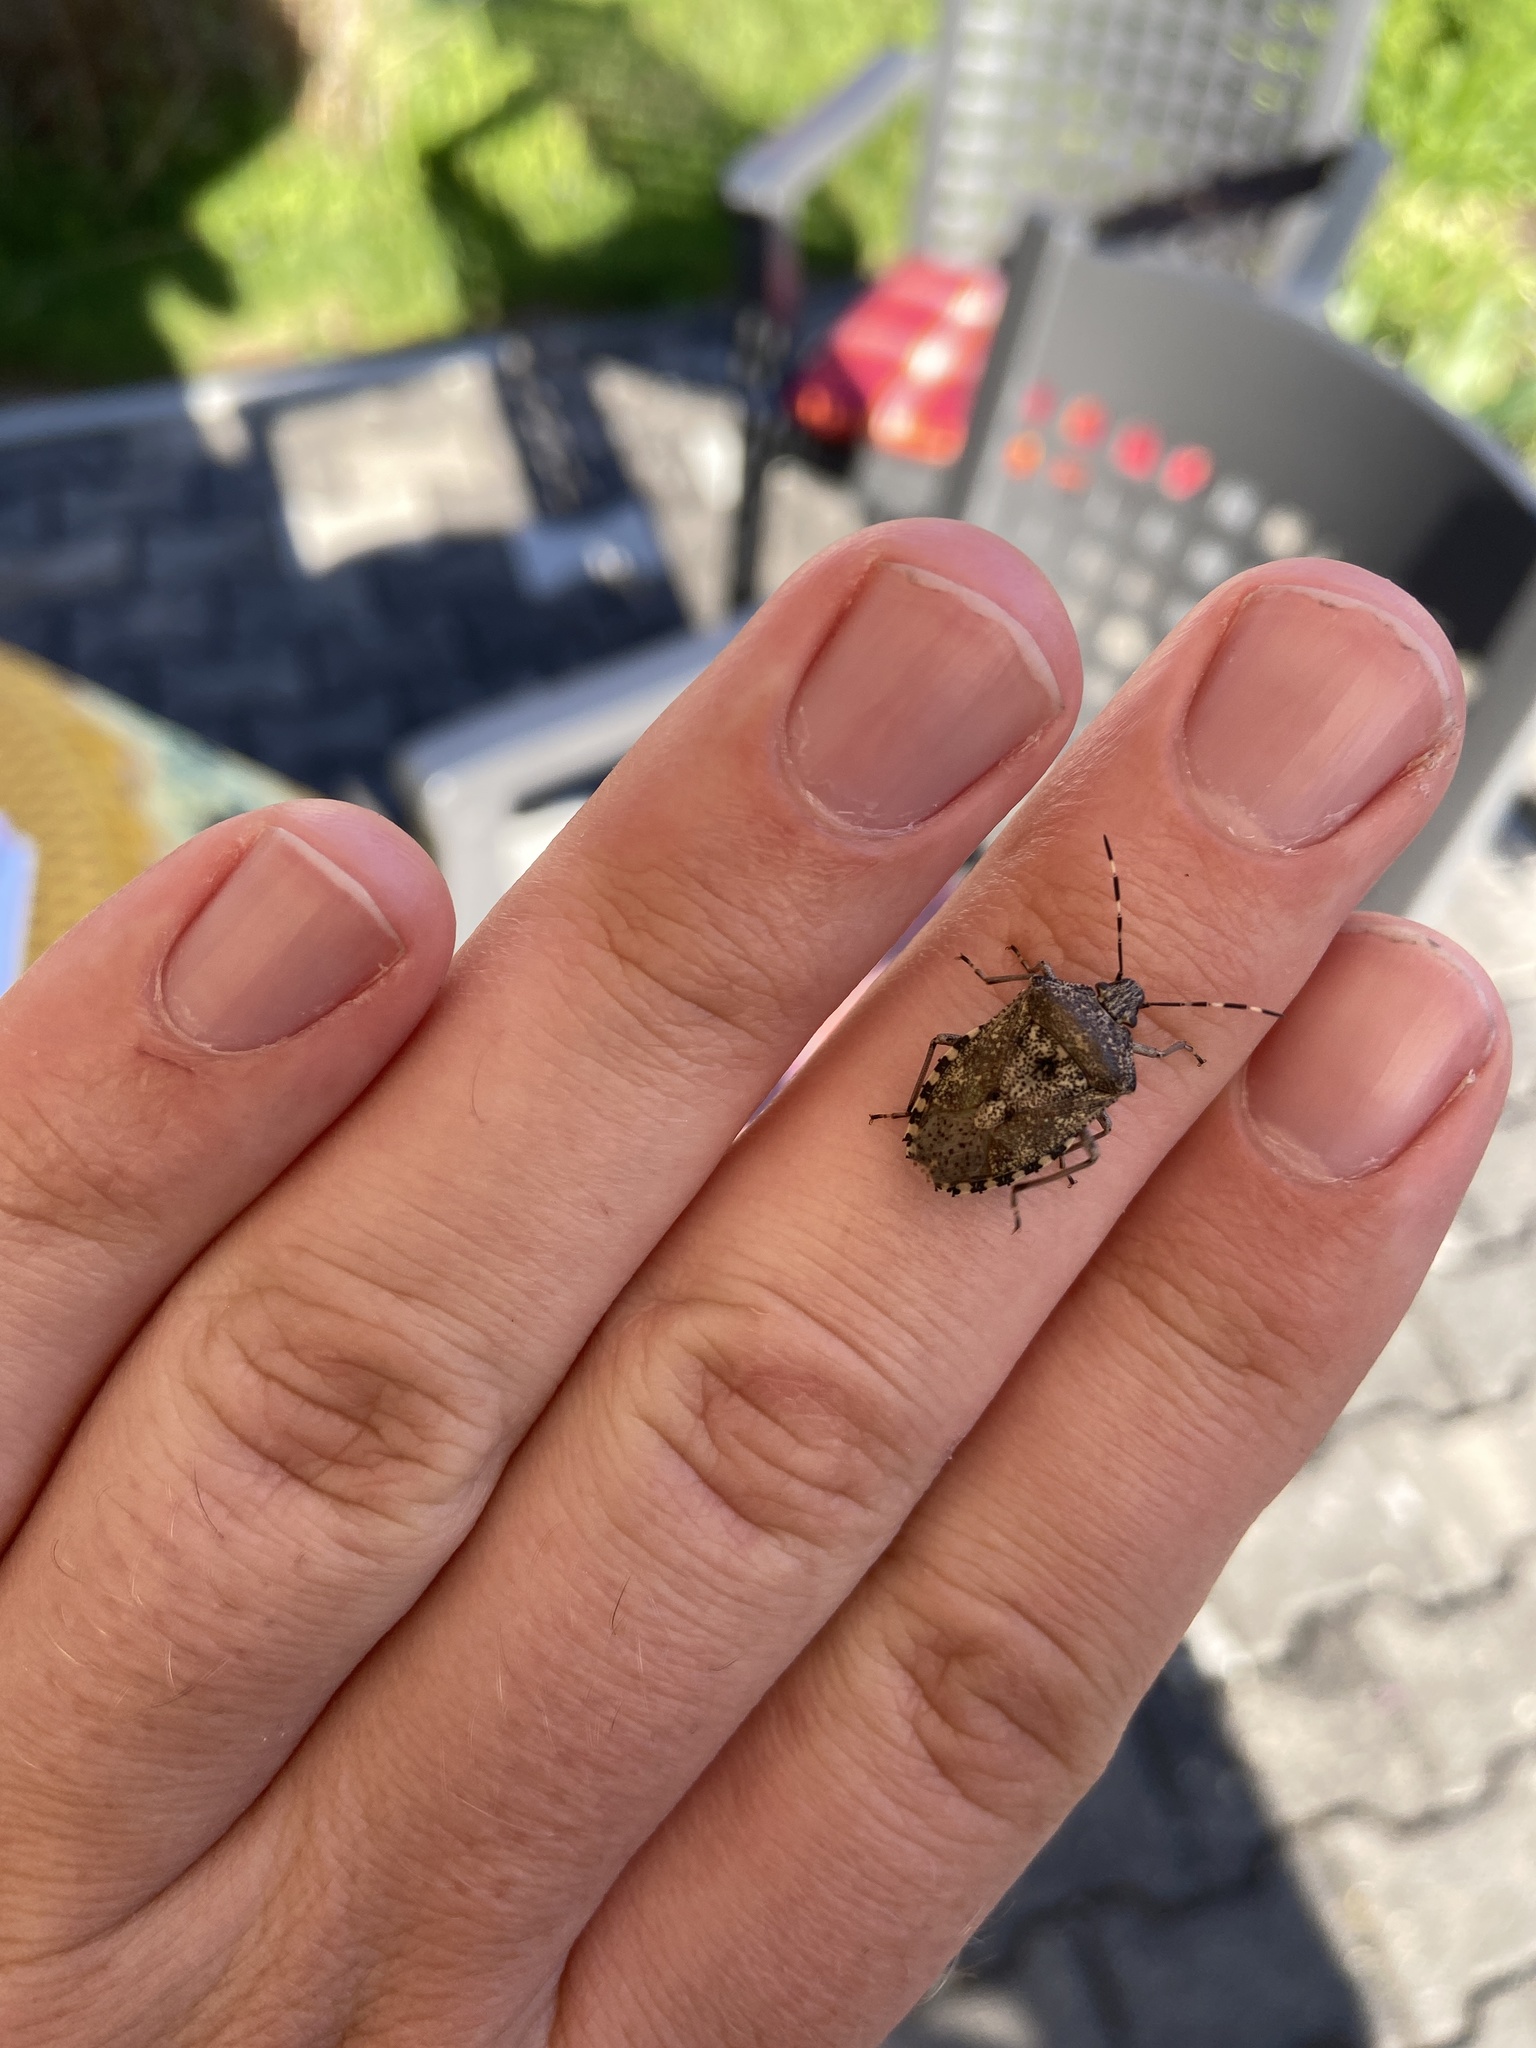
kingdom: Animalia
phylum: Arthropoda
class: Insecta
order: Hemiptera
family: Pentatomidae
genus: Rhaphigaster
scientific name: Rhaphigaster nebulosa
